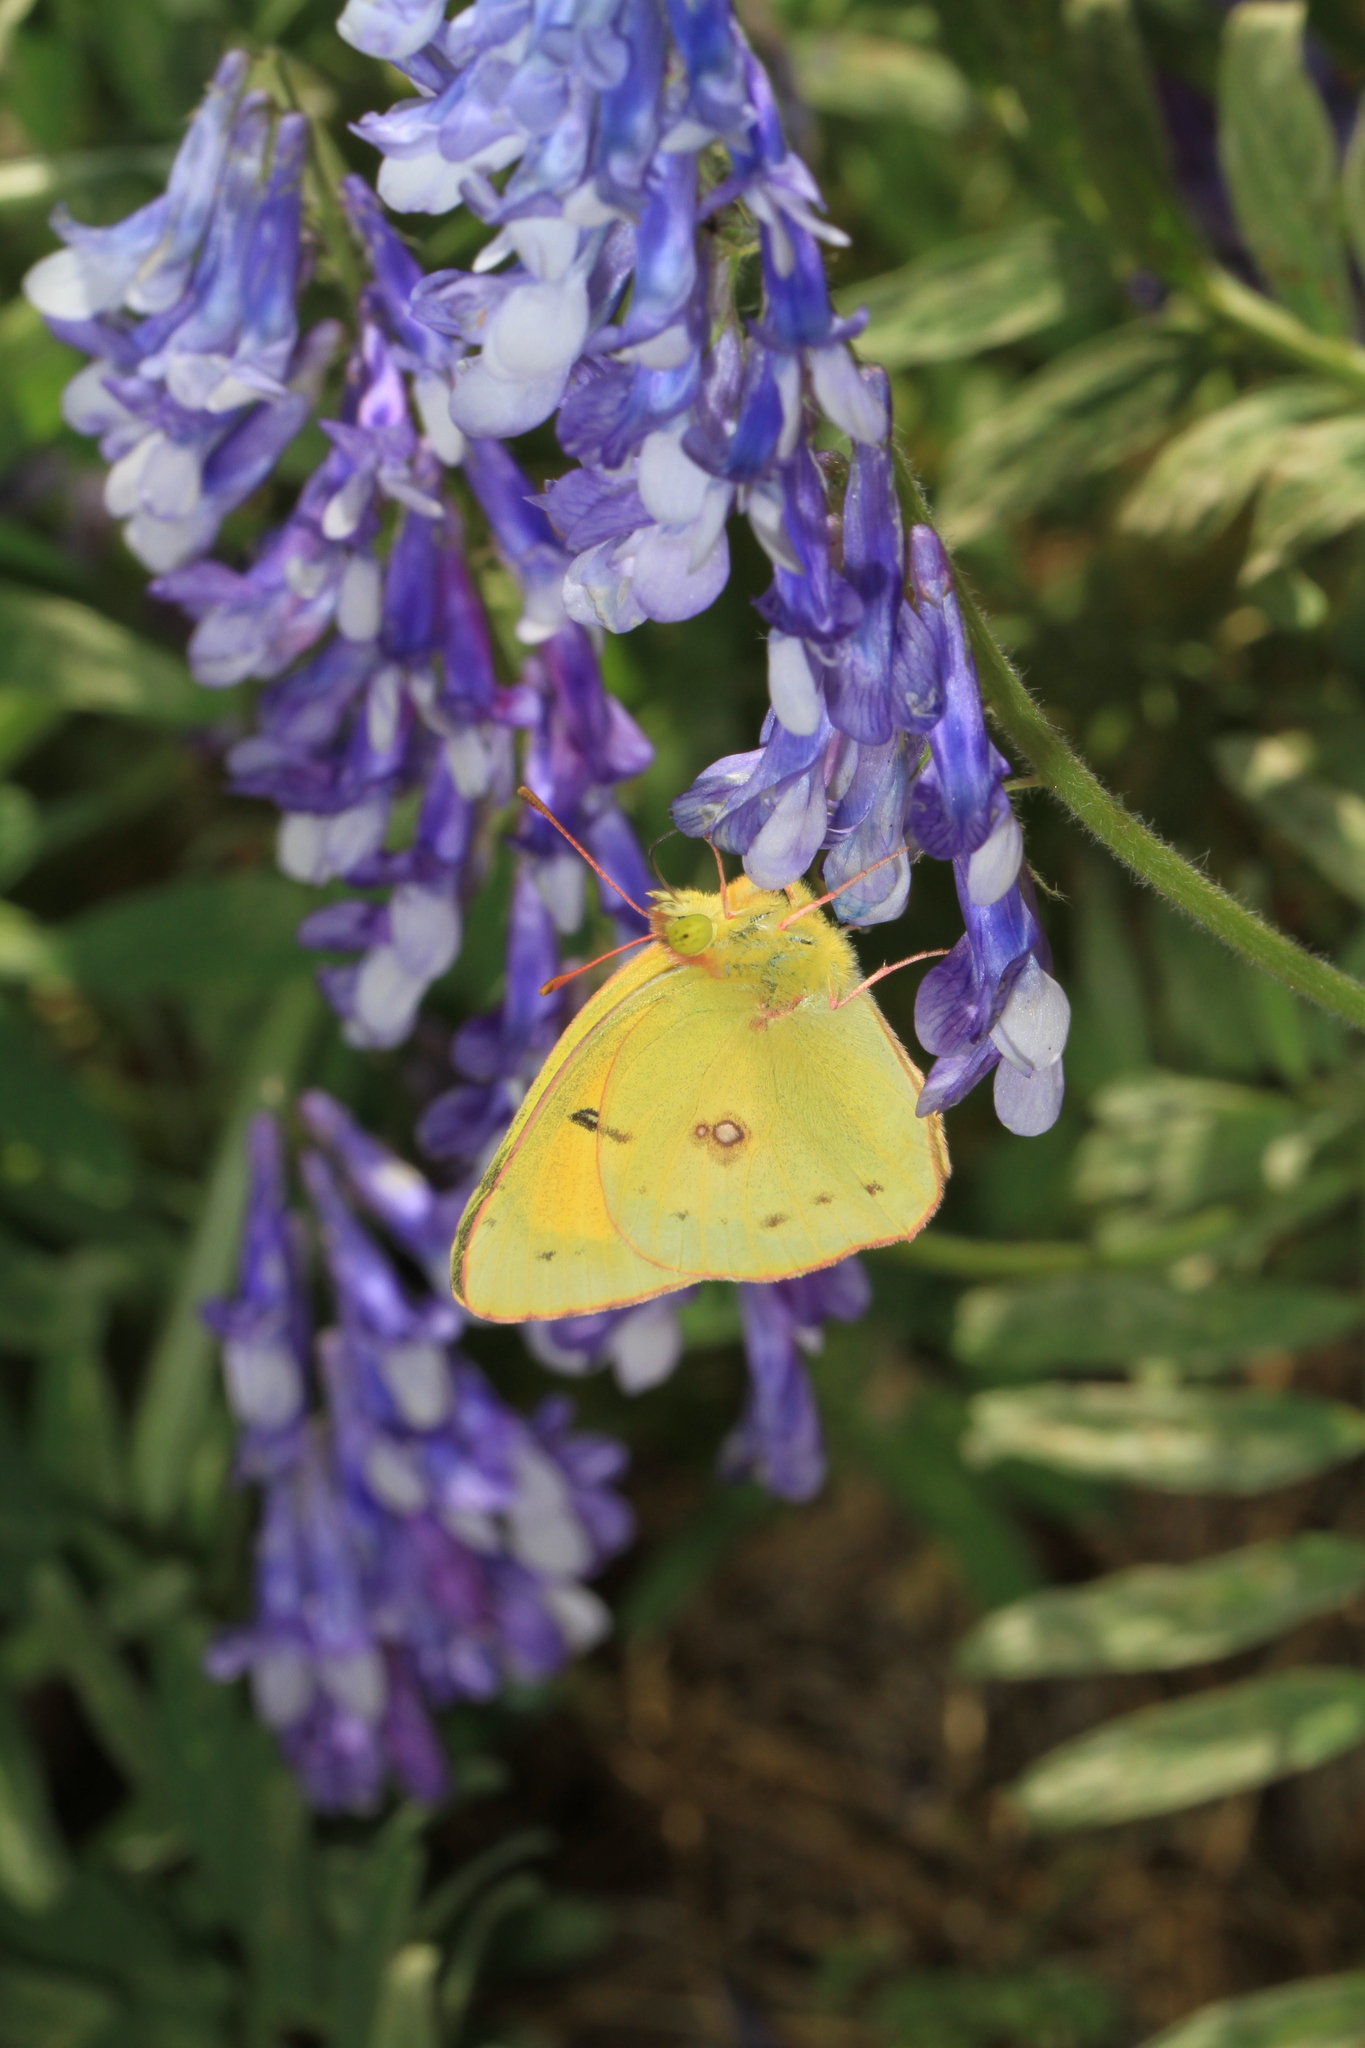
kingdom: Animalia
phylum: Arthropoda
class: Insecta
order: Lepidoptera
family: Pieridae
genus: Colias
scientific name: Colias eurytheme
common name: Alfalfa butterfly
